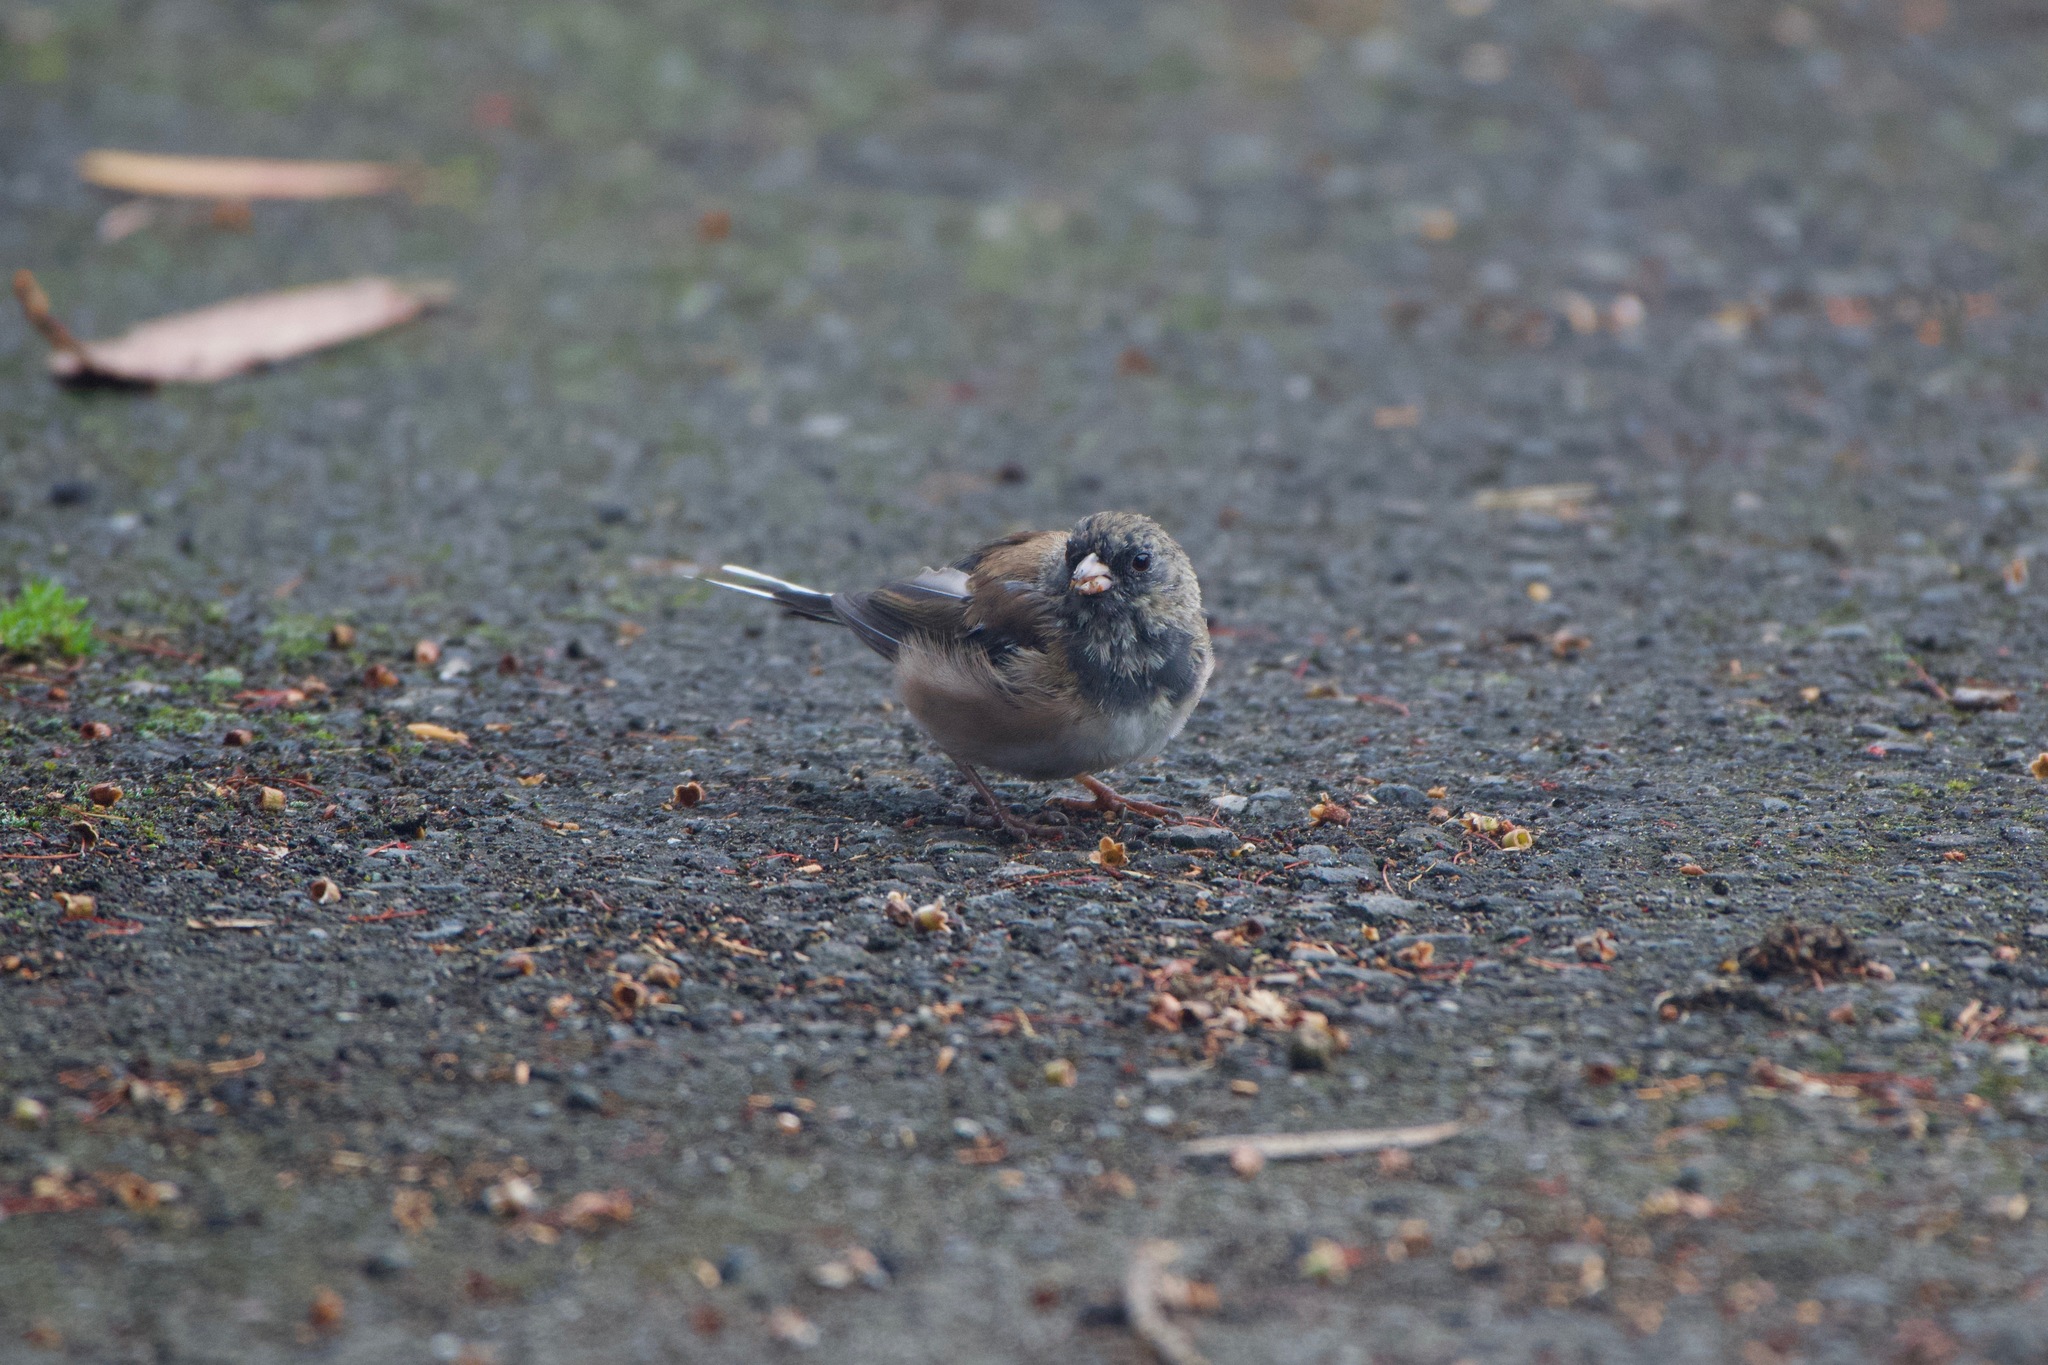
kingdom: Animalia
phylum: Chordata
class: Aves
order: Passeriformes
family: Passerellidae
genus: Junco
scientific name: Junco hyemalis
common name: Dark-eyed junco
